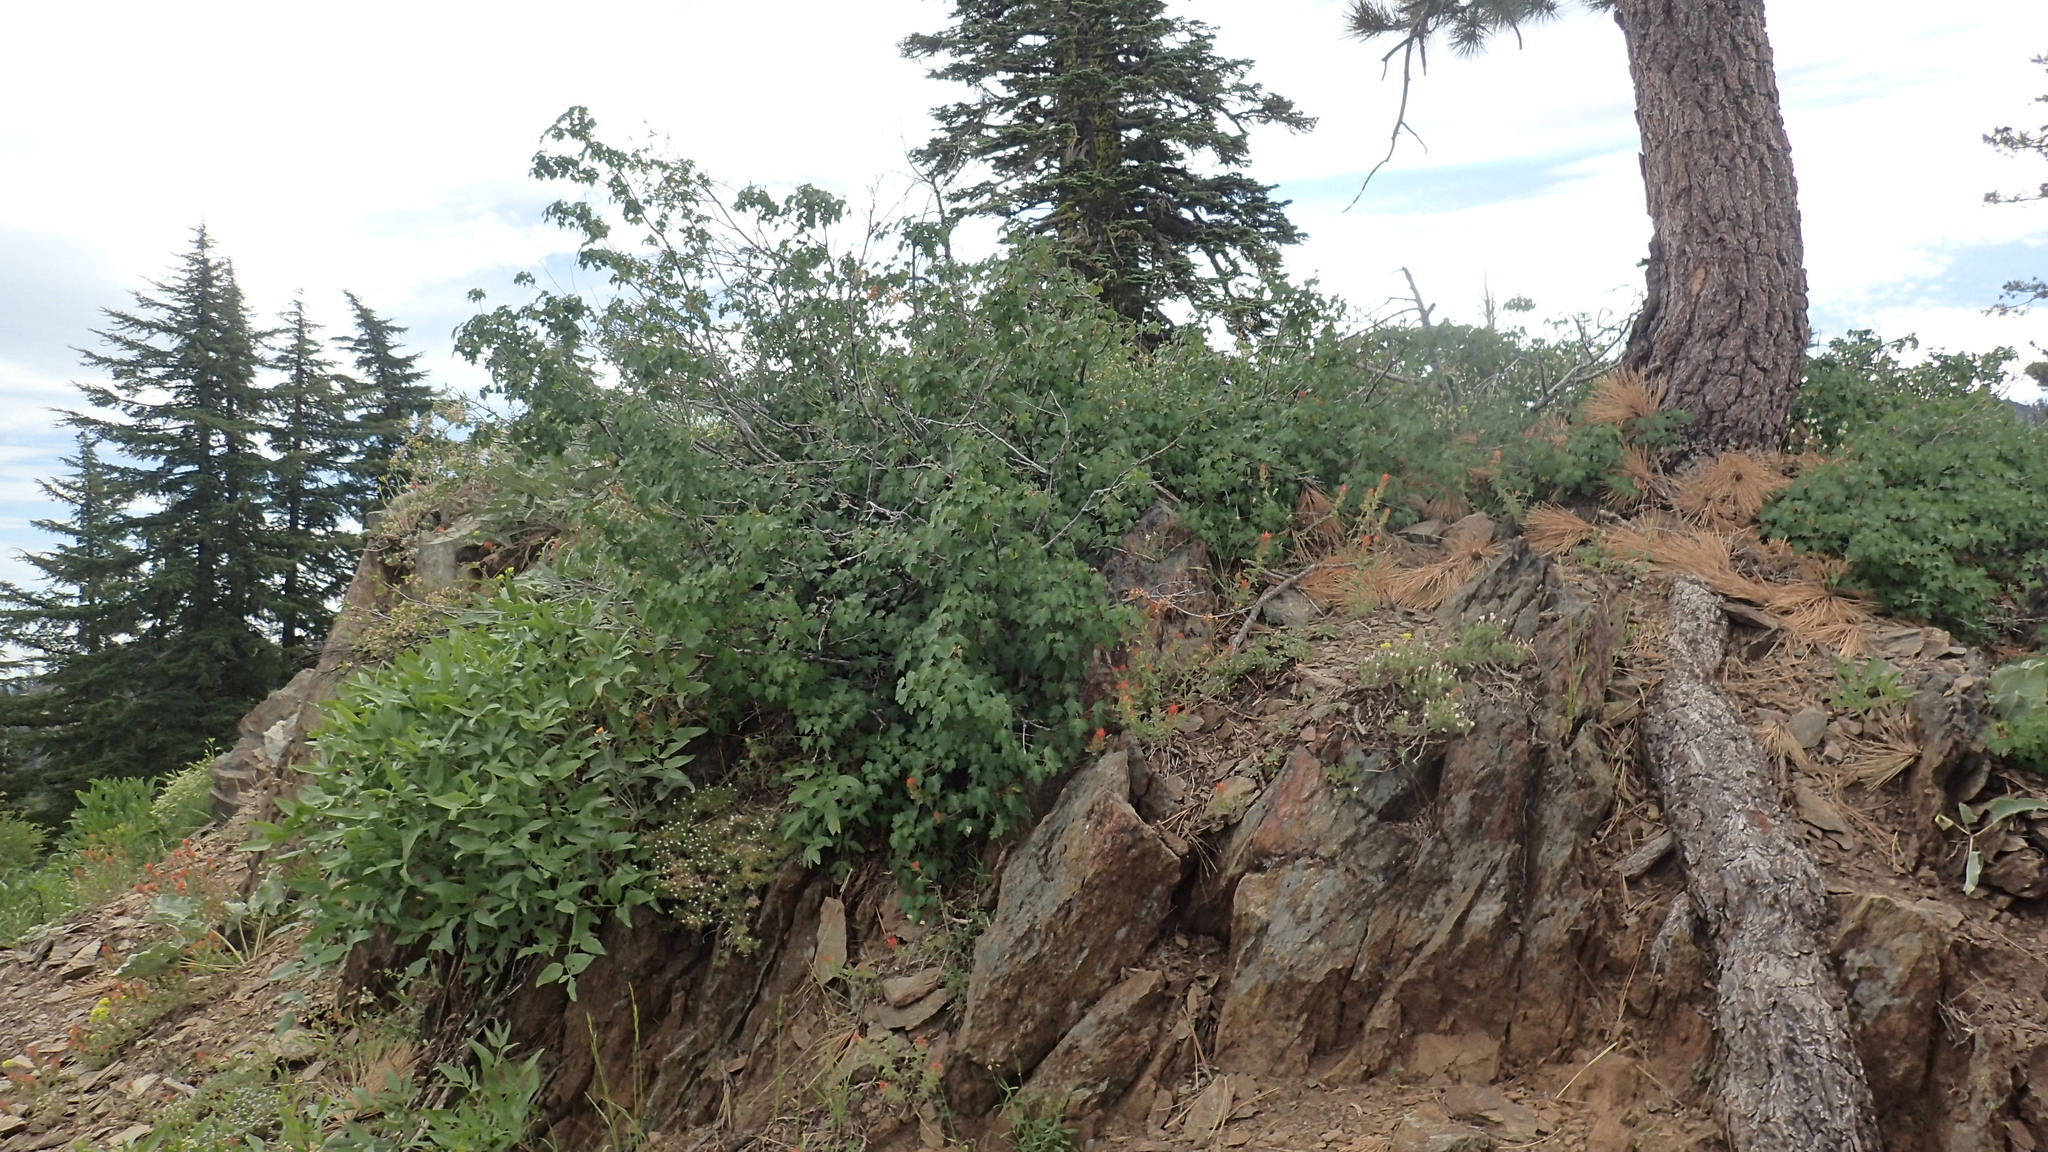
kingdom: Plantae
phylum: Tracheophyta
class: Magnoliopsida
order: Sapindales
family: Sapindaceae
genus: Acer
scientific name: Acer glabrum
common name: Rocky mountain maple
